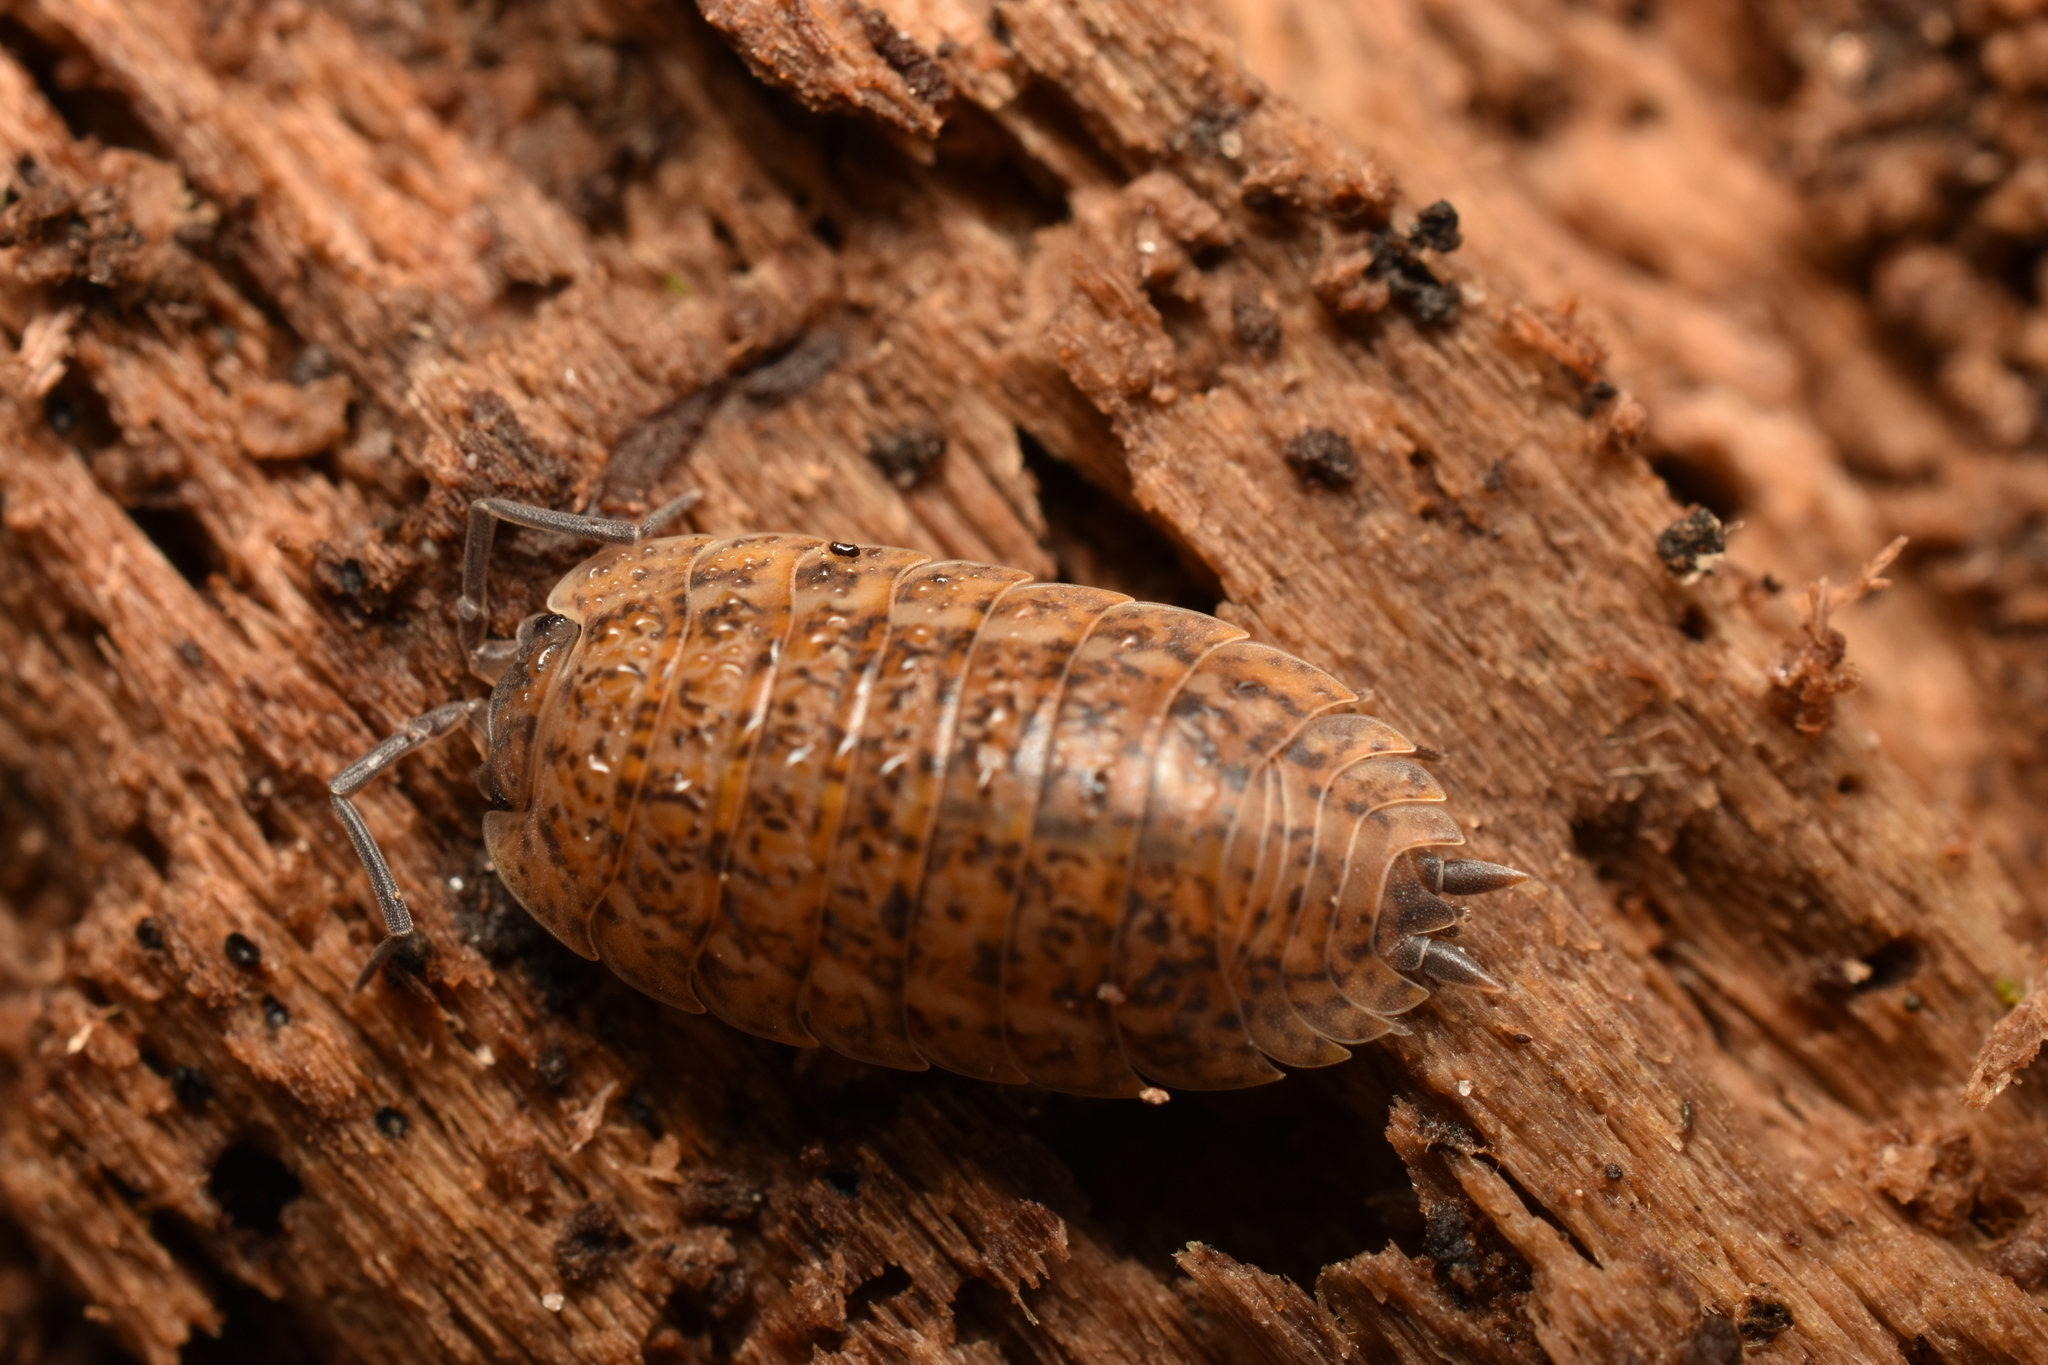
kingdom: Animalia
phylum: Arthropoda
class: Malacostraca
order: Isopoda
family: Trachelipodidae
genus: Trachelipus
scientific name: Trachelipus rathkii
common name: Isopod
